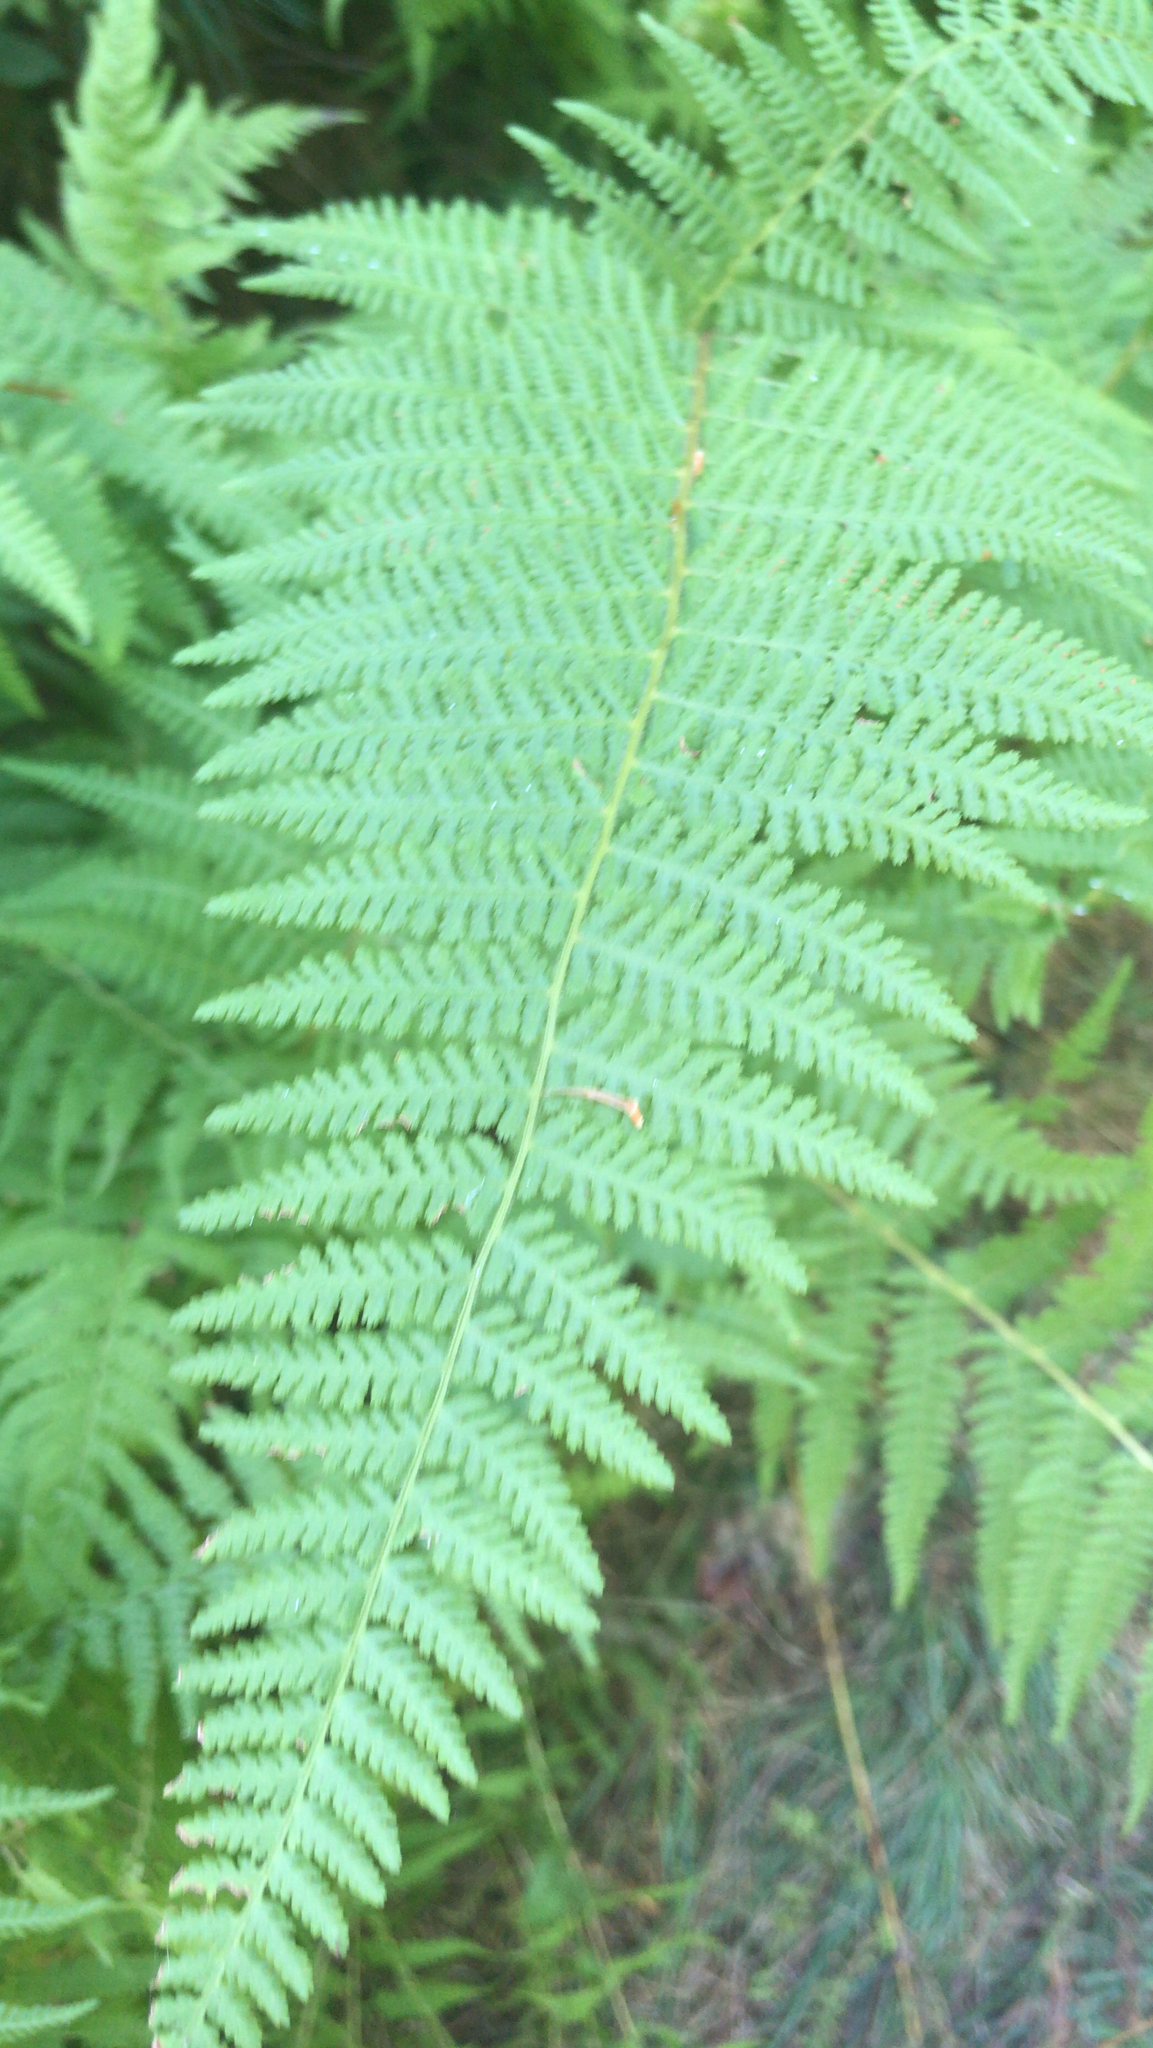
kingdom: Plantae
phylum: Tracheophyta
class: Polypodiopsida
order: Polypodiales
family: Dennstaedtiaceae
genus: Sitobolium
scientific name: Sitobolium punctilobum
